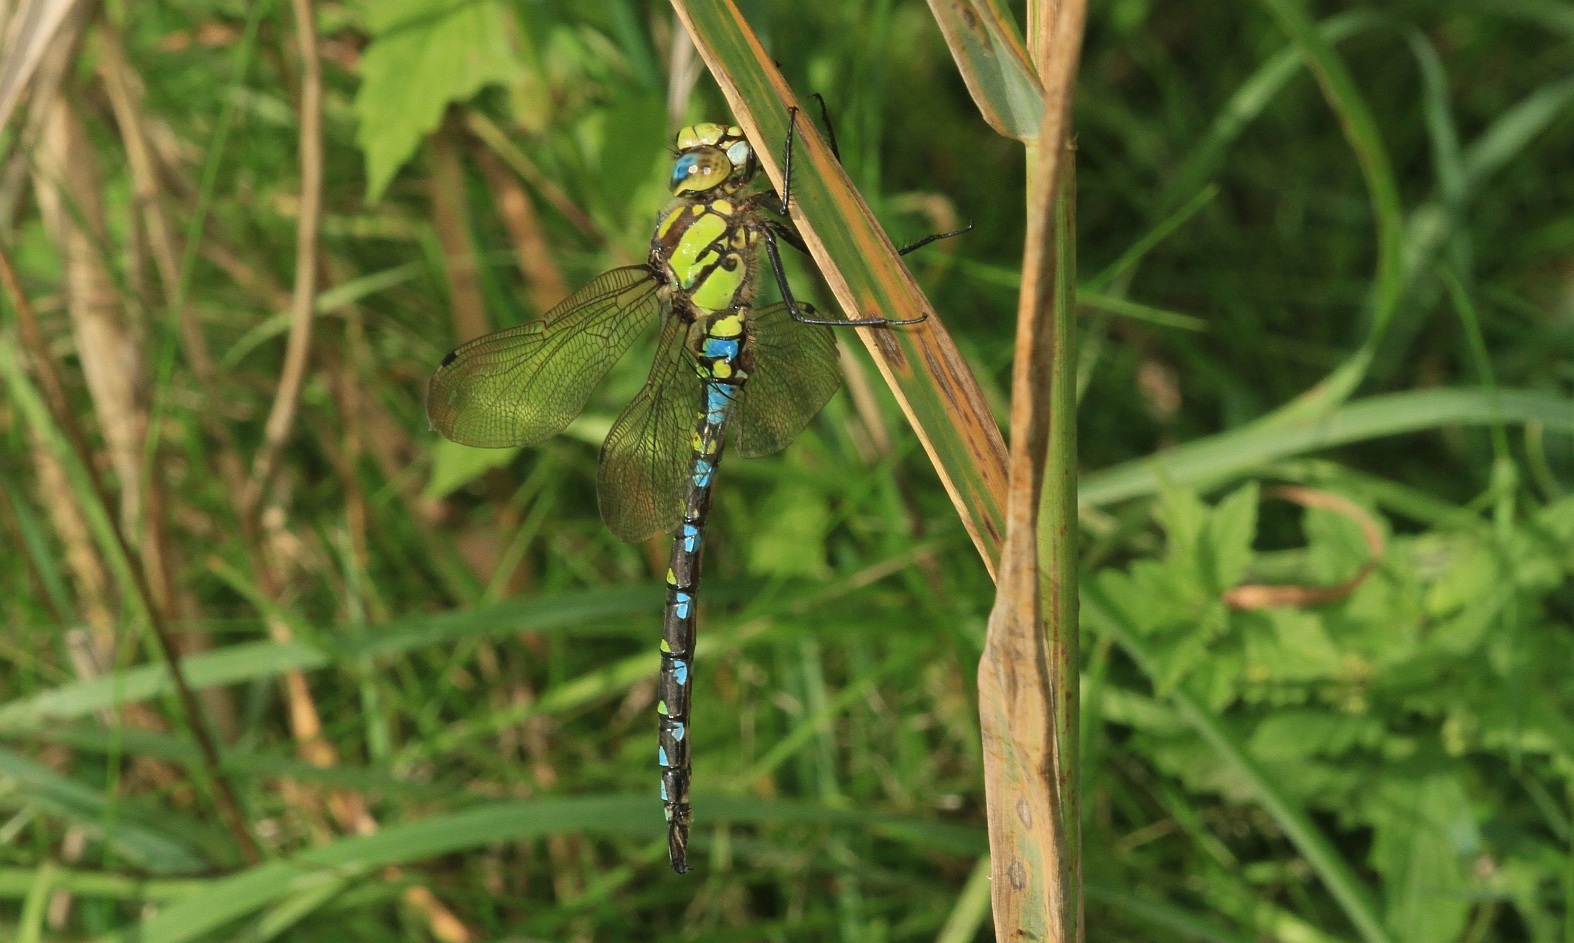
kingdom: Animalia
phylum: Arthropoda
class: Insecta
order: Odonata
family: Aeshnidae
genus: Aeshna
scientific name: Aeshna cyanea
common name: Southern hawker
